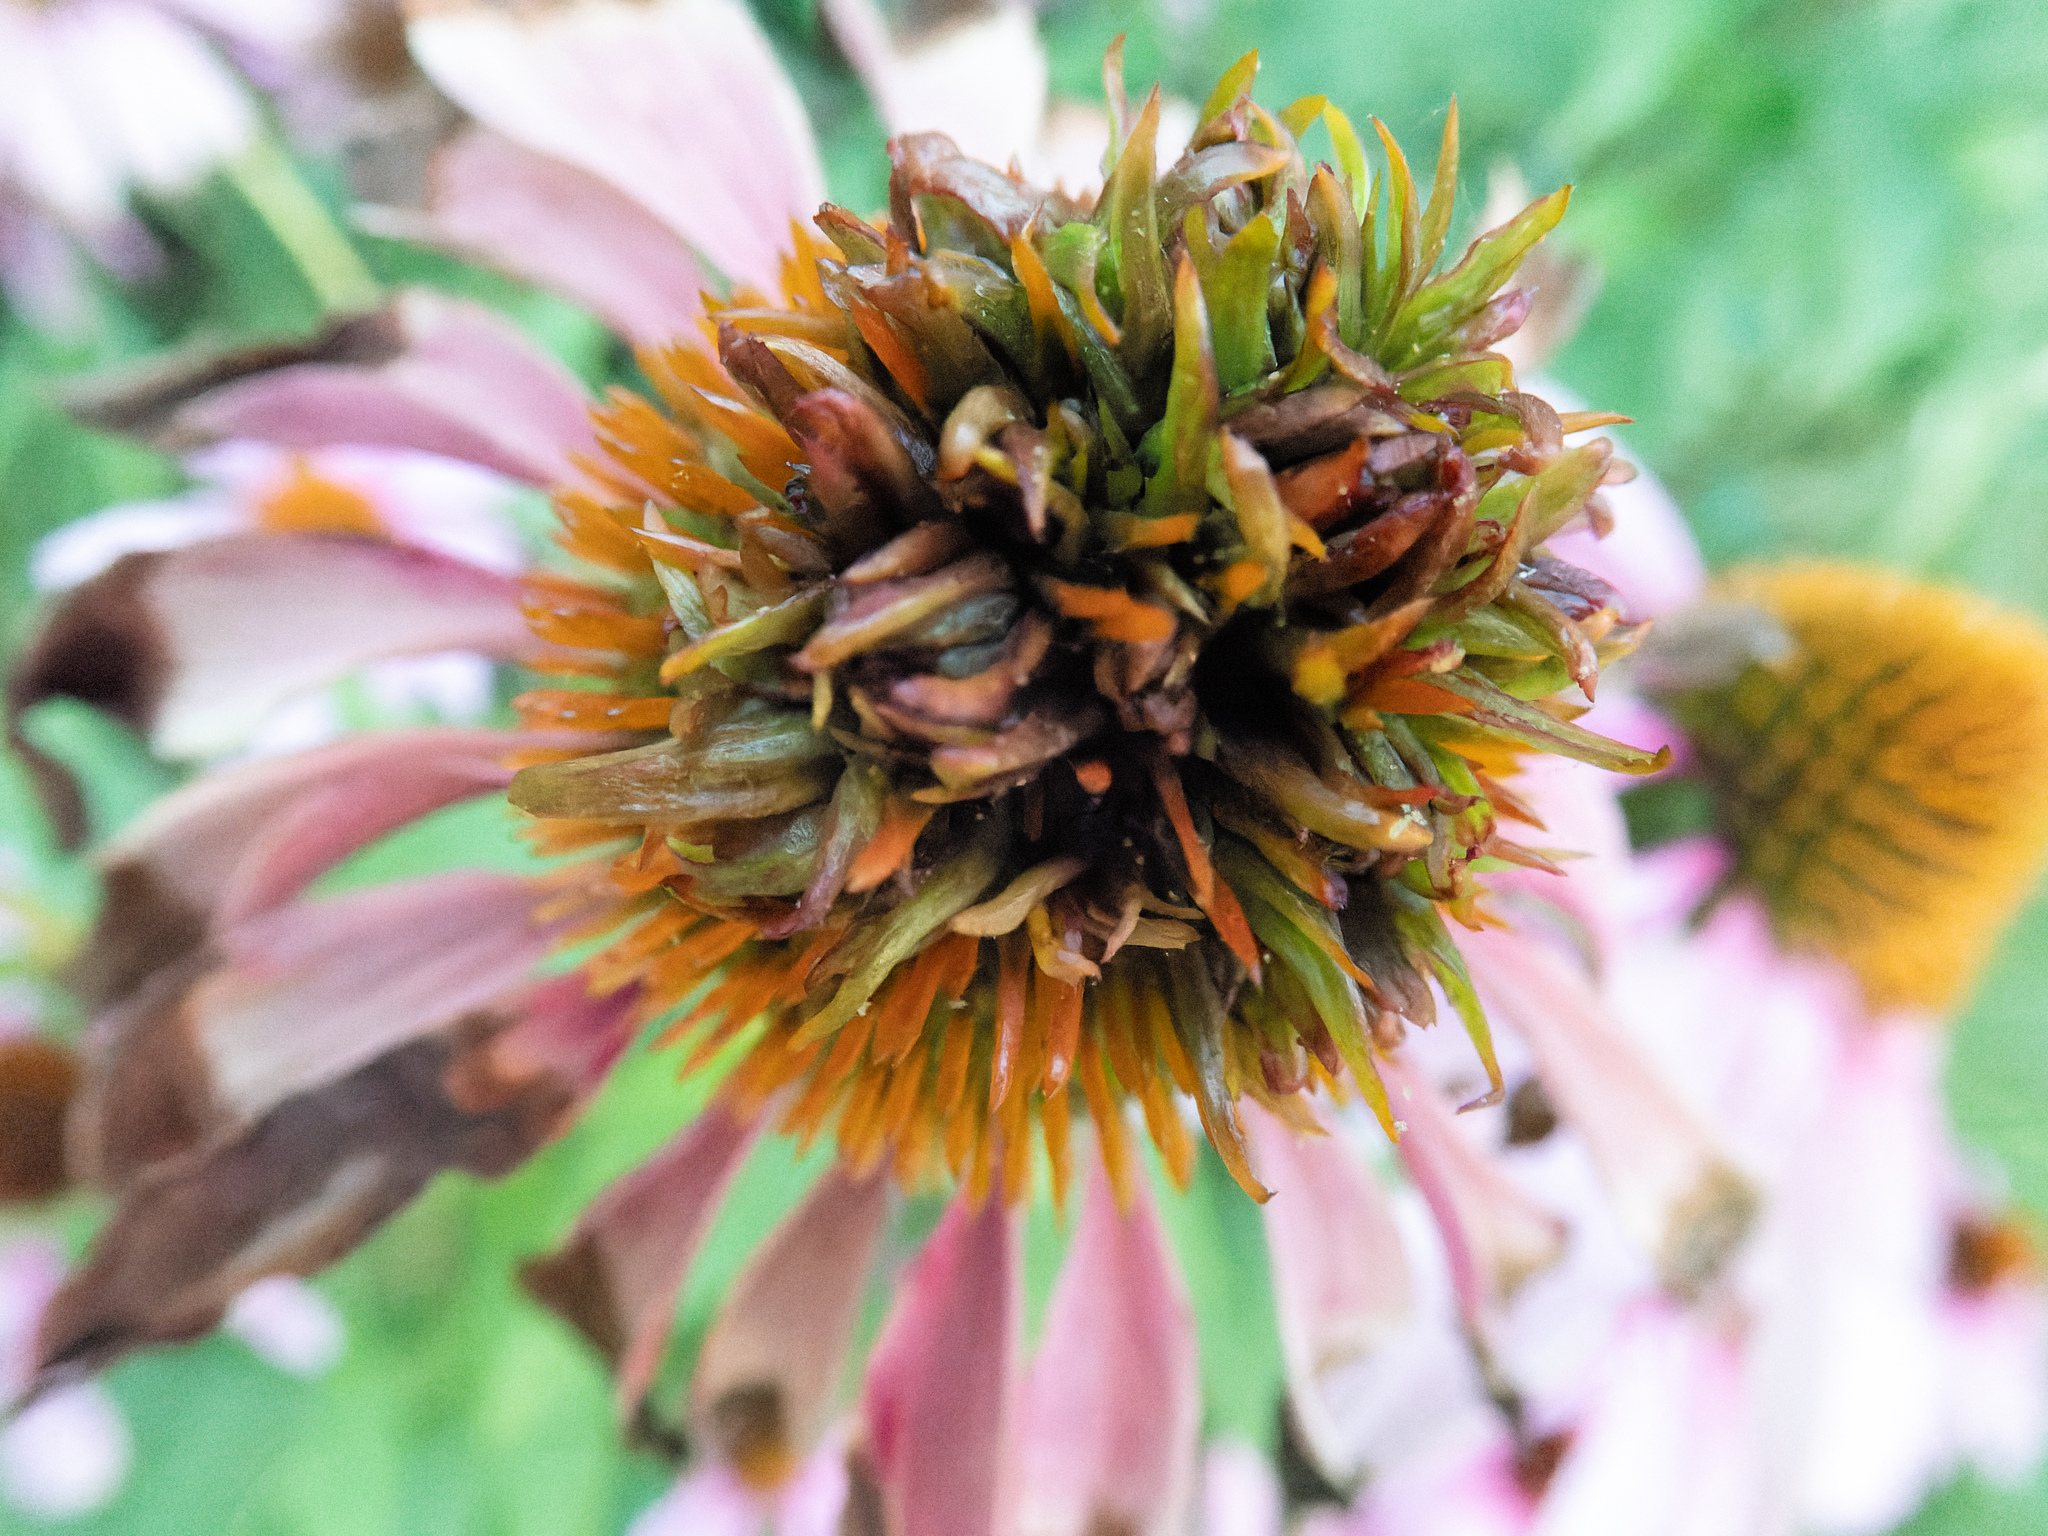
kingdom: Bacteria
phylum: Firmicutes
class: Bacilli
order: Acholeplasmatales
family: Acholeplasmataceae
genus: Phytoplasma
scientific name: Phytoplasma
